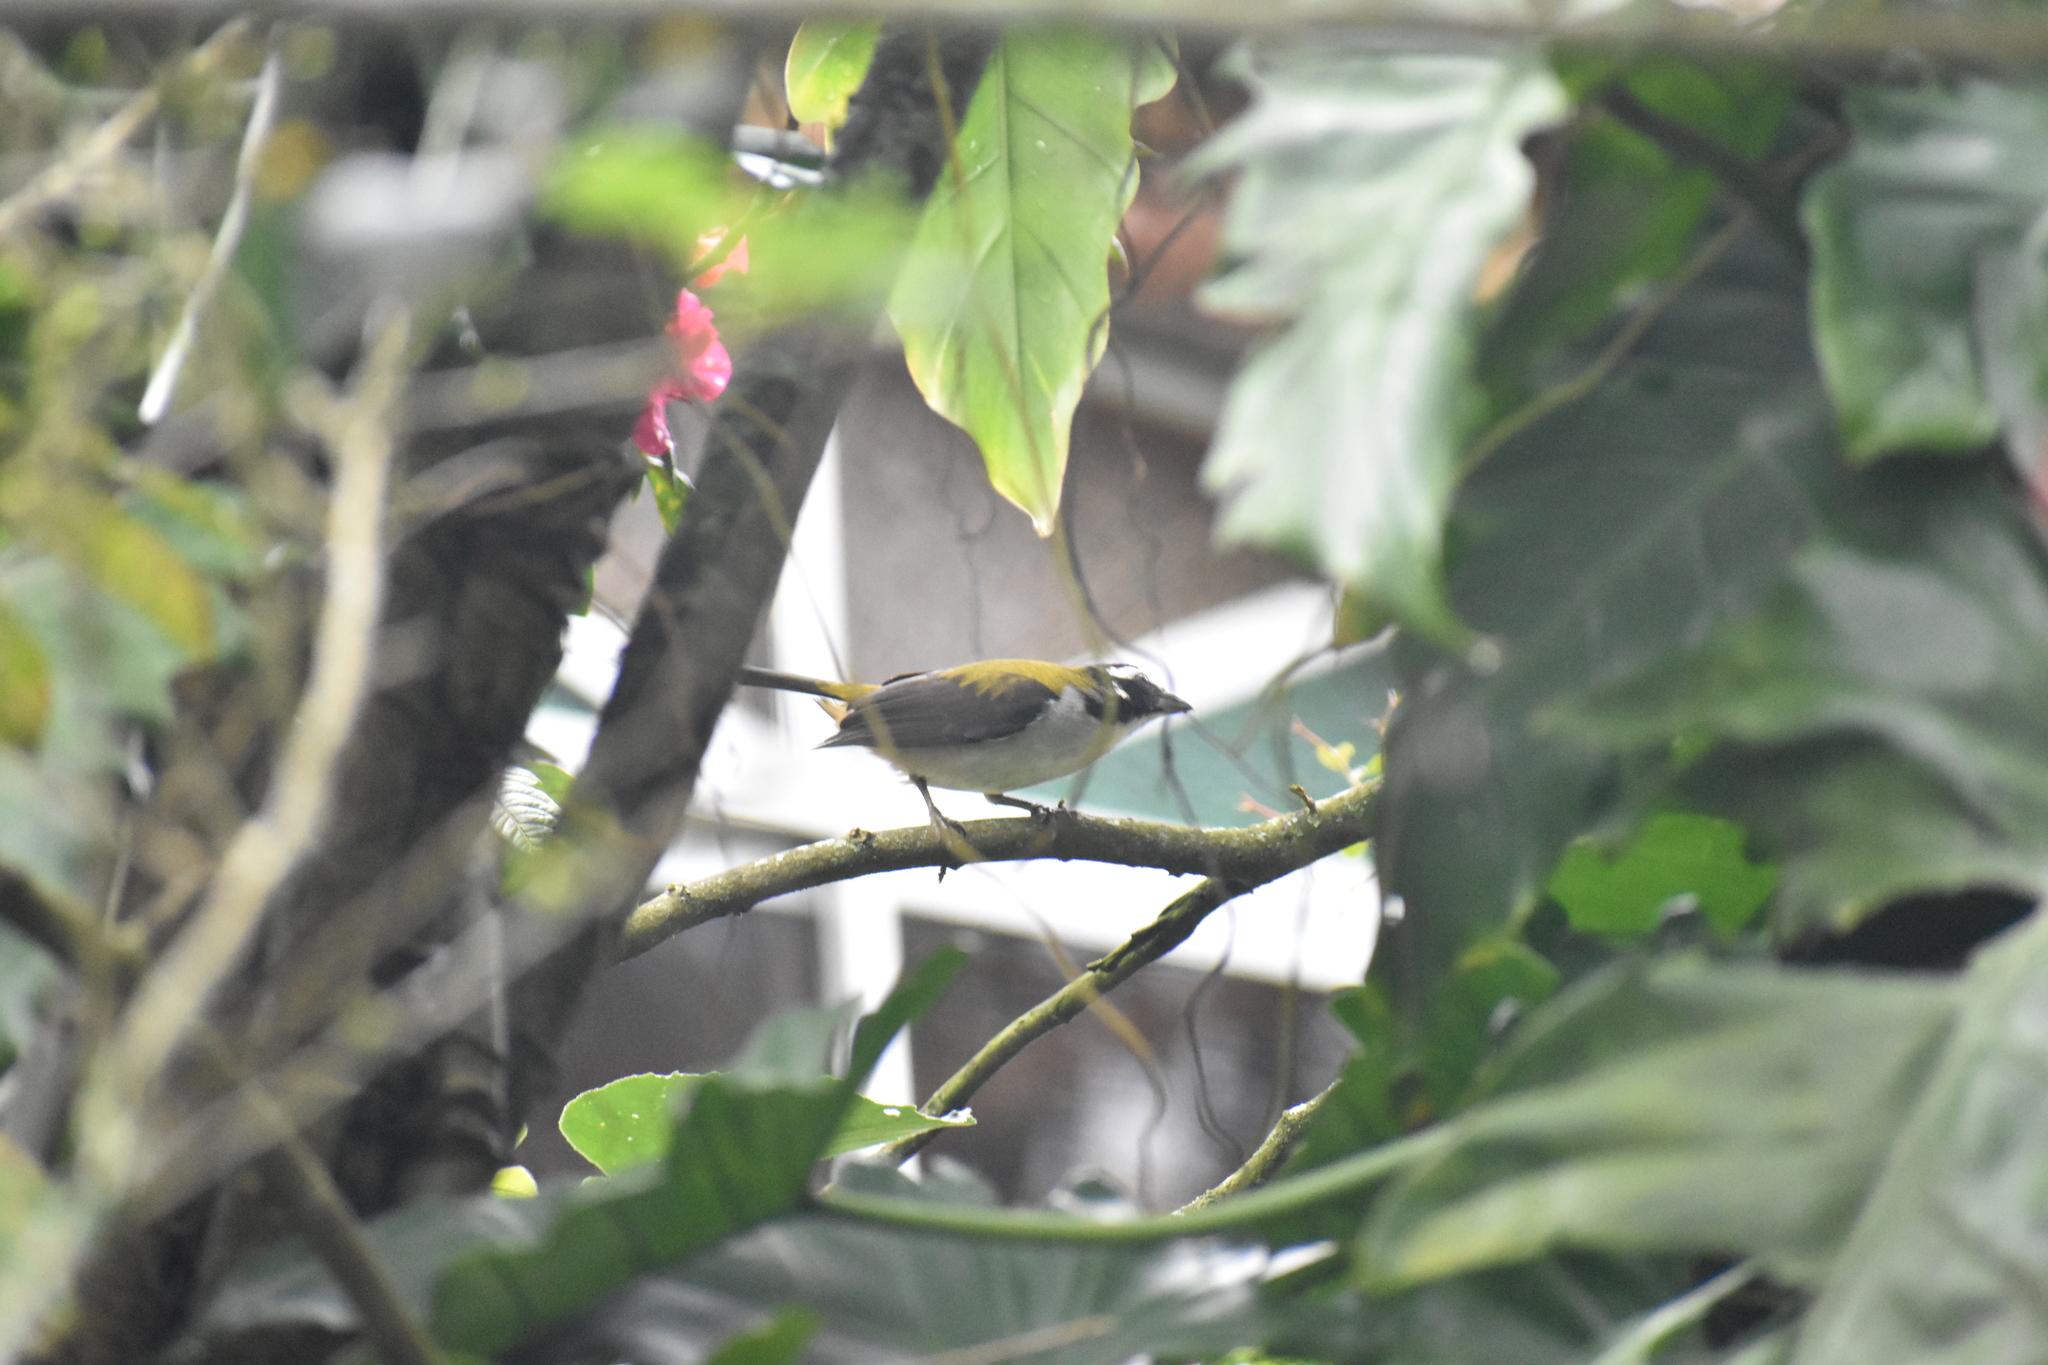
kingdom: Animalia
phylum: Chordata
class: Aves
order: Passeriformes
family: Thraupidae
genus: Saltator
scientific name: Saltator atripennis
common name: Black-winged saltator
